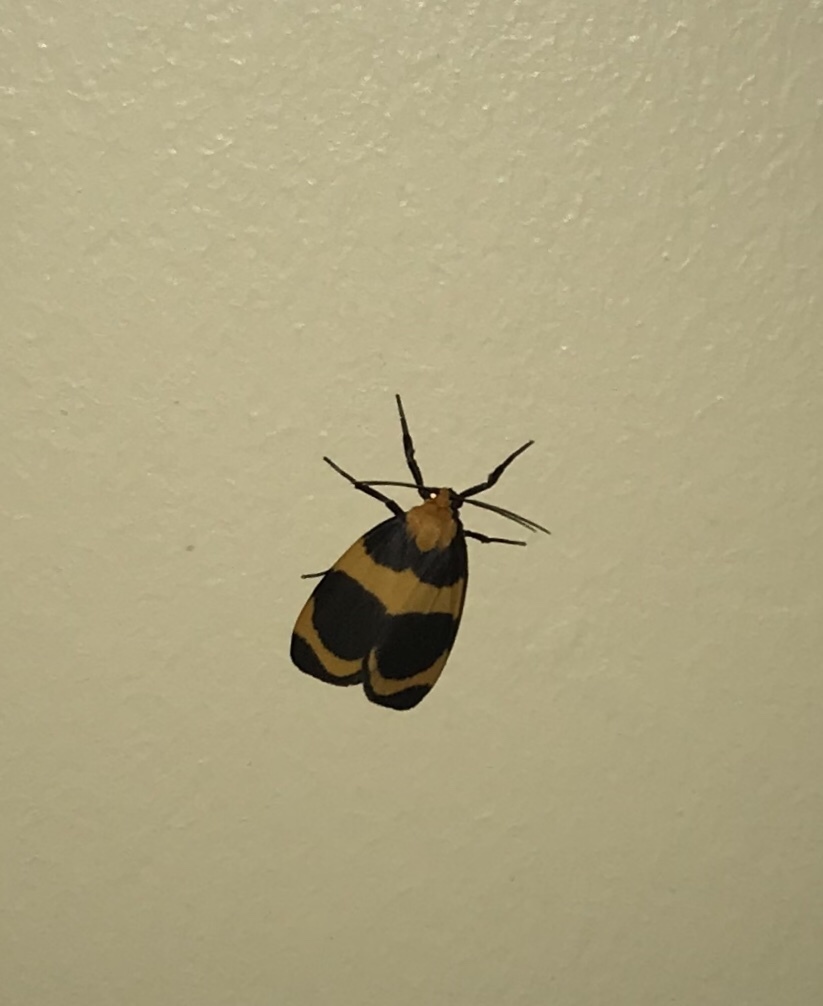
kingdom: Animalia
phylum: Arthropoda
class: Insecta
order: Lepidoptera
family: Erebidae
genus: Eudesmia
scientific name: Eudesmia menea
